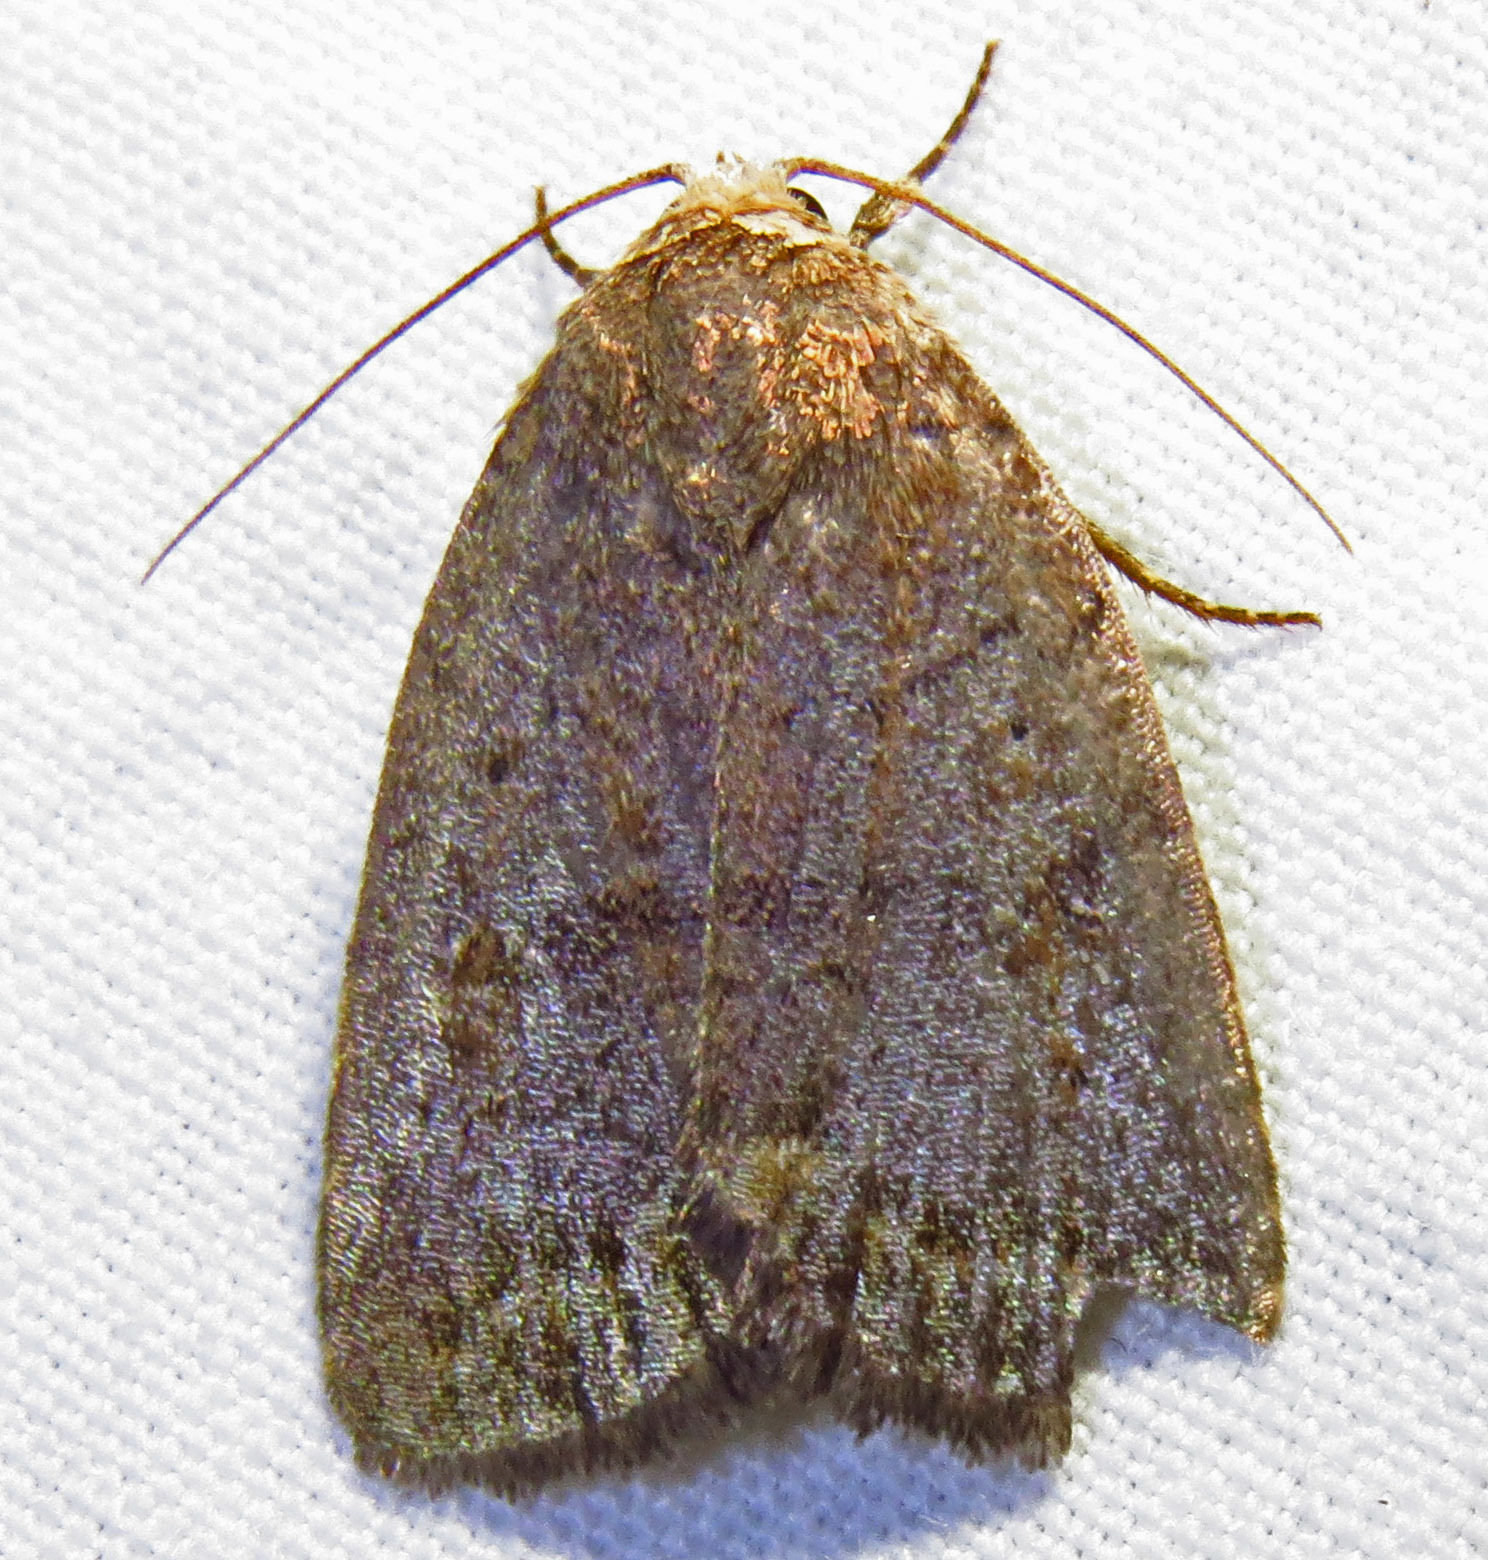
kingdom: Animalia
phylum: Arthropoda
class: Insecta
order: Lepidoptera
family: Noctuidae
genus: Athetis
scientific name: Athetis tarda
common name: Slowpoke moth
